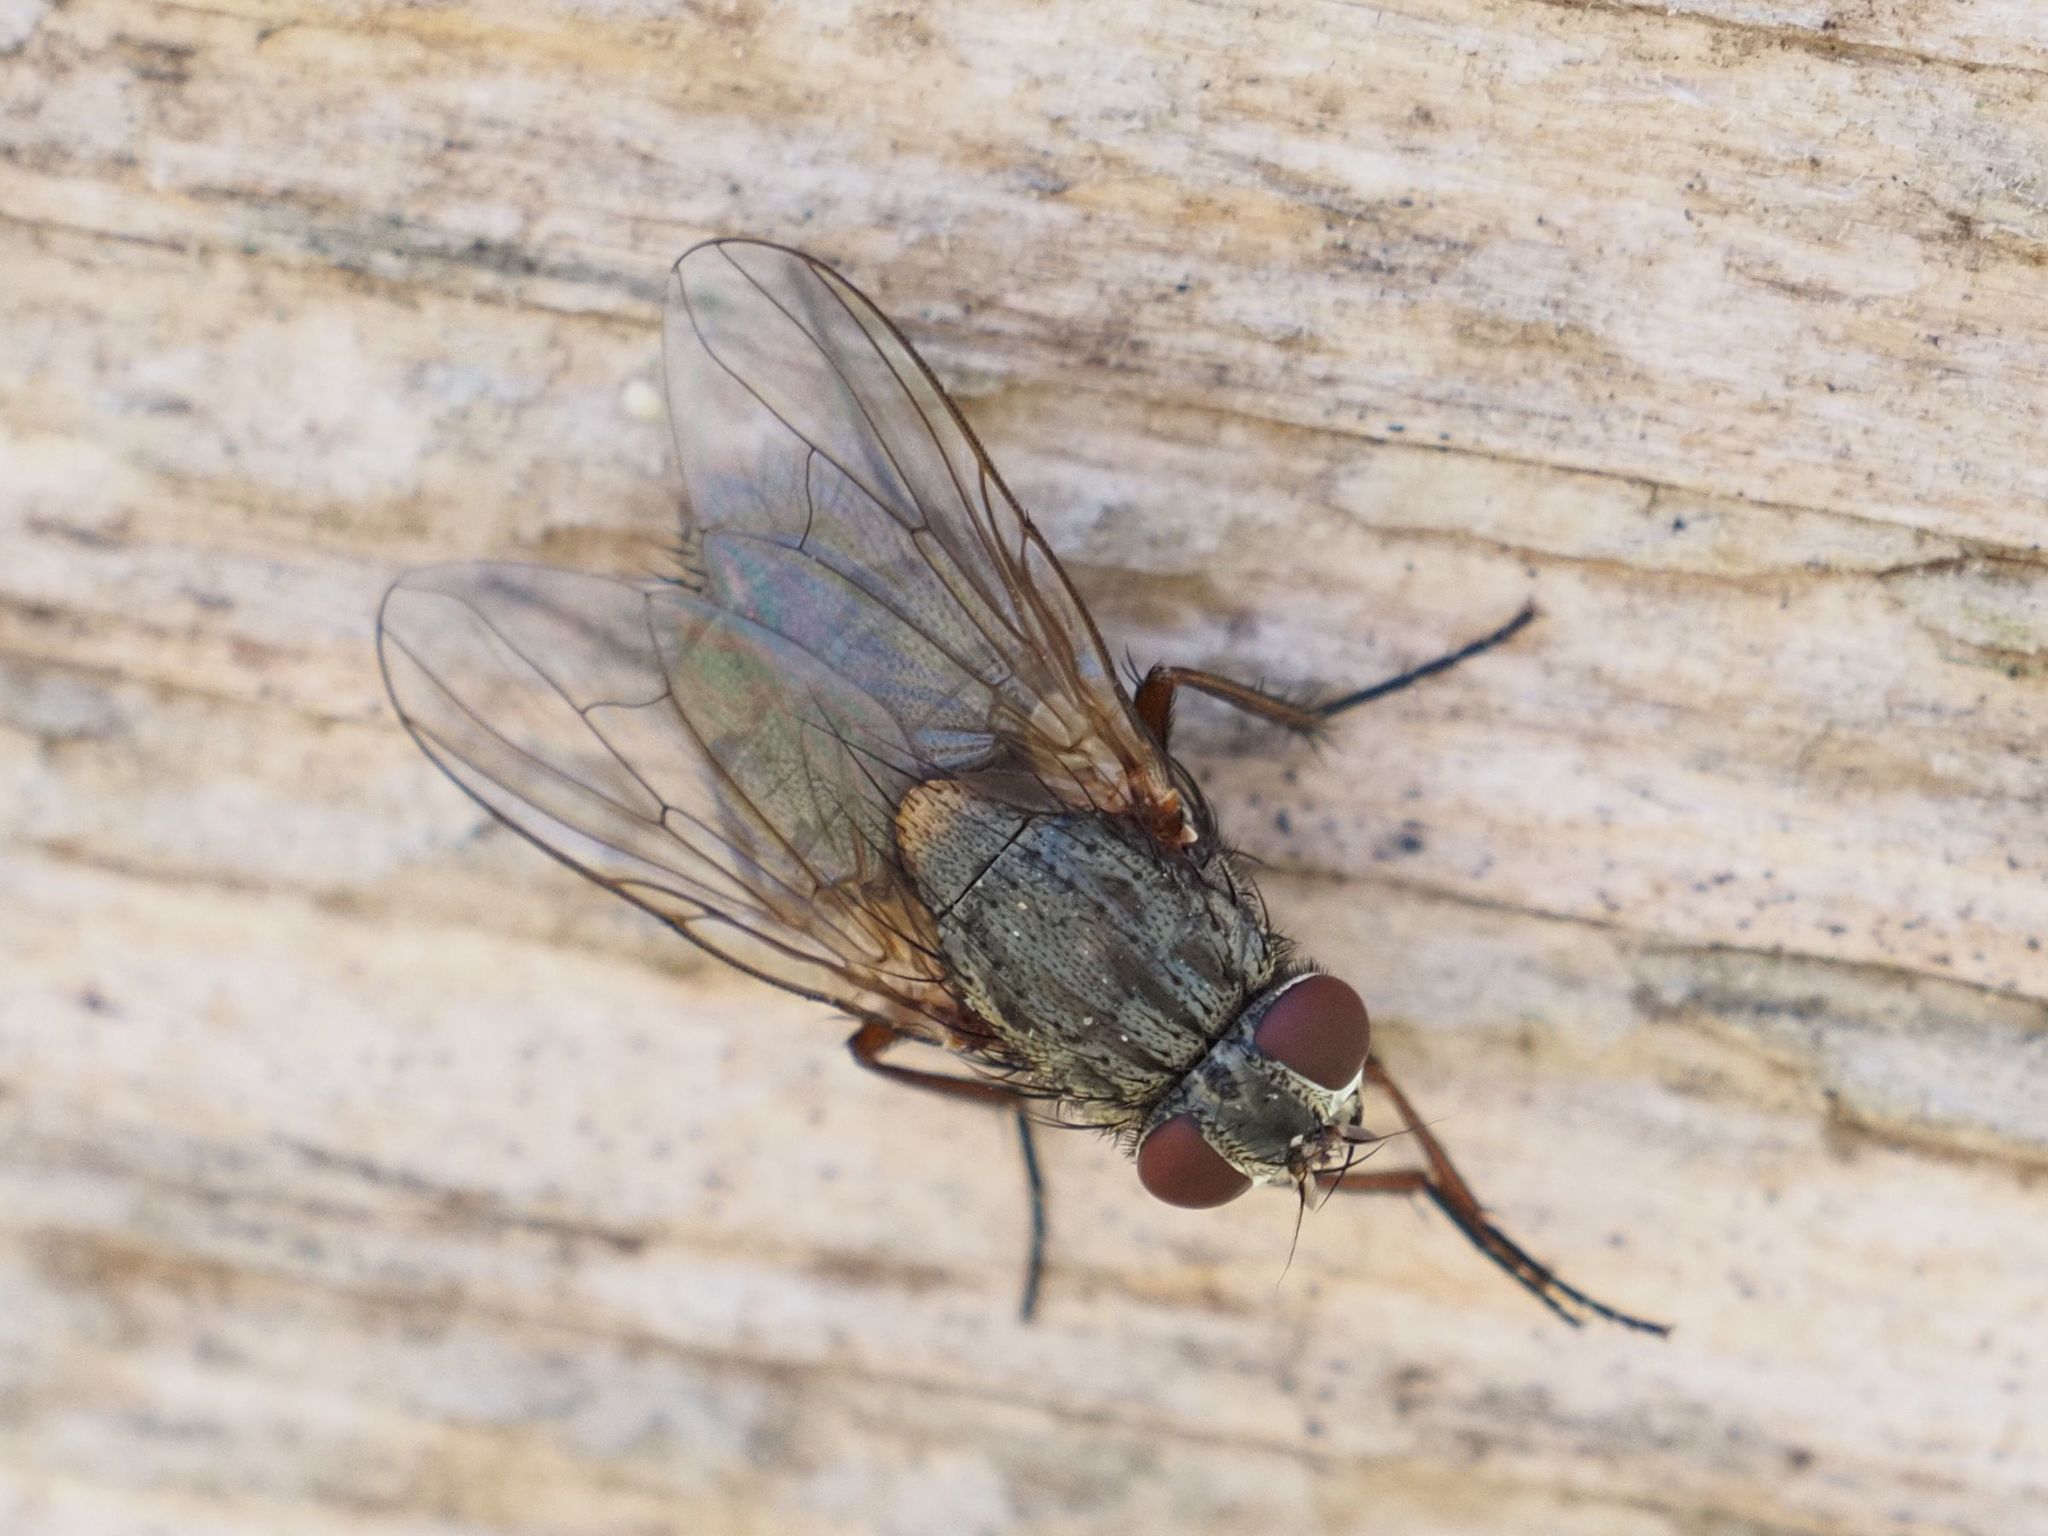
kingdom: Animalia
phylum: Arthropoda
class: Insecta
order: Diptera
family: Muscidae
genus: Muscina
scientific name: Muscina stabulans
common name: False stable fly
